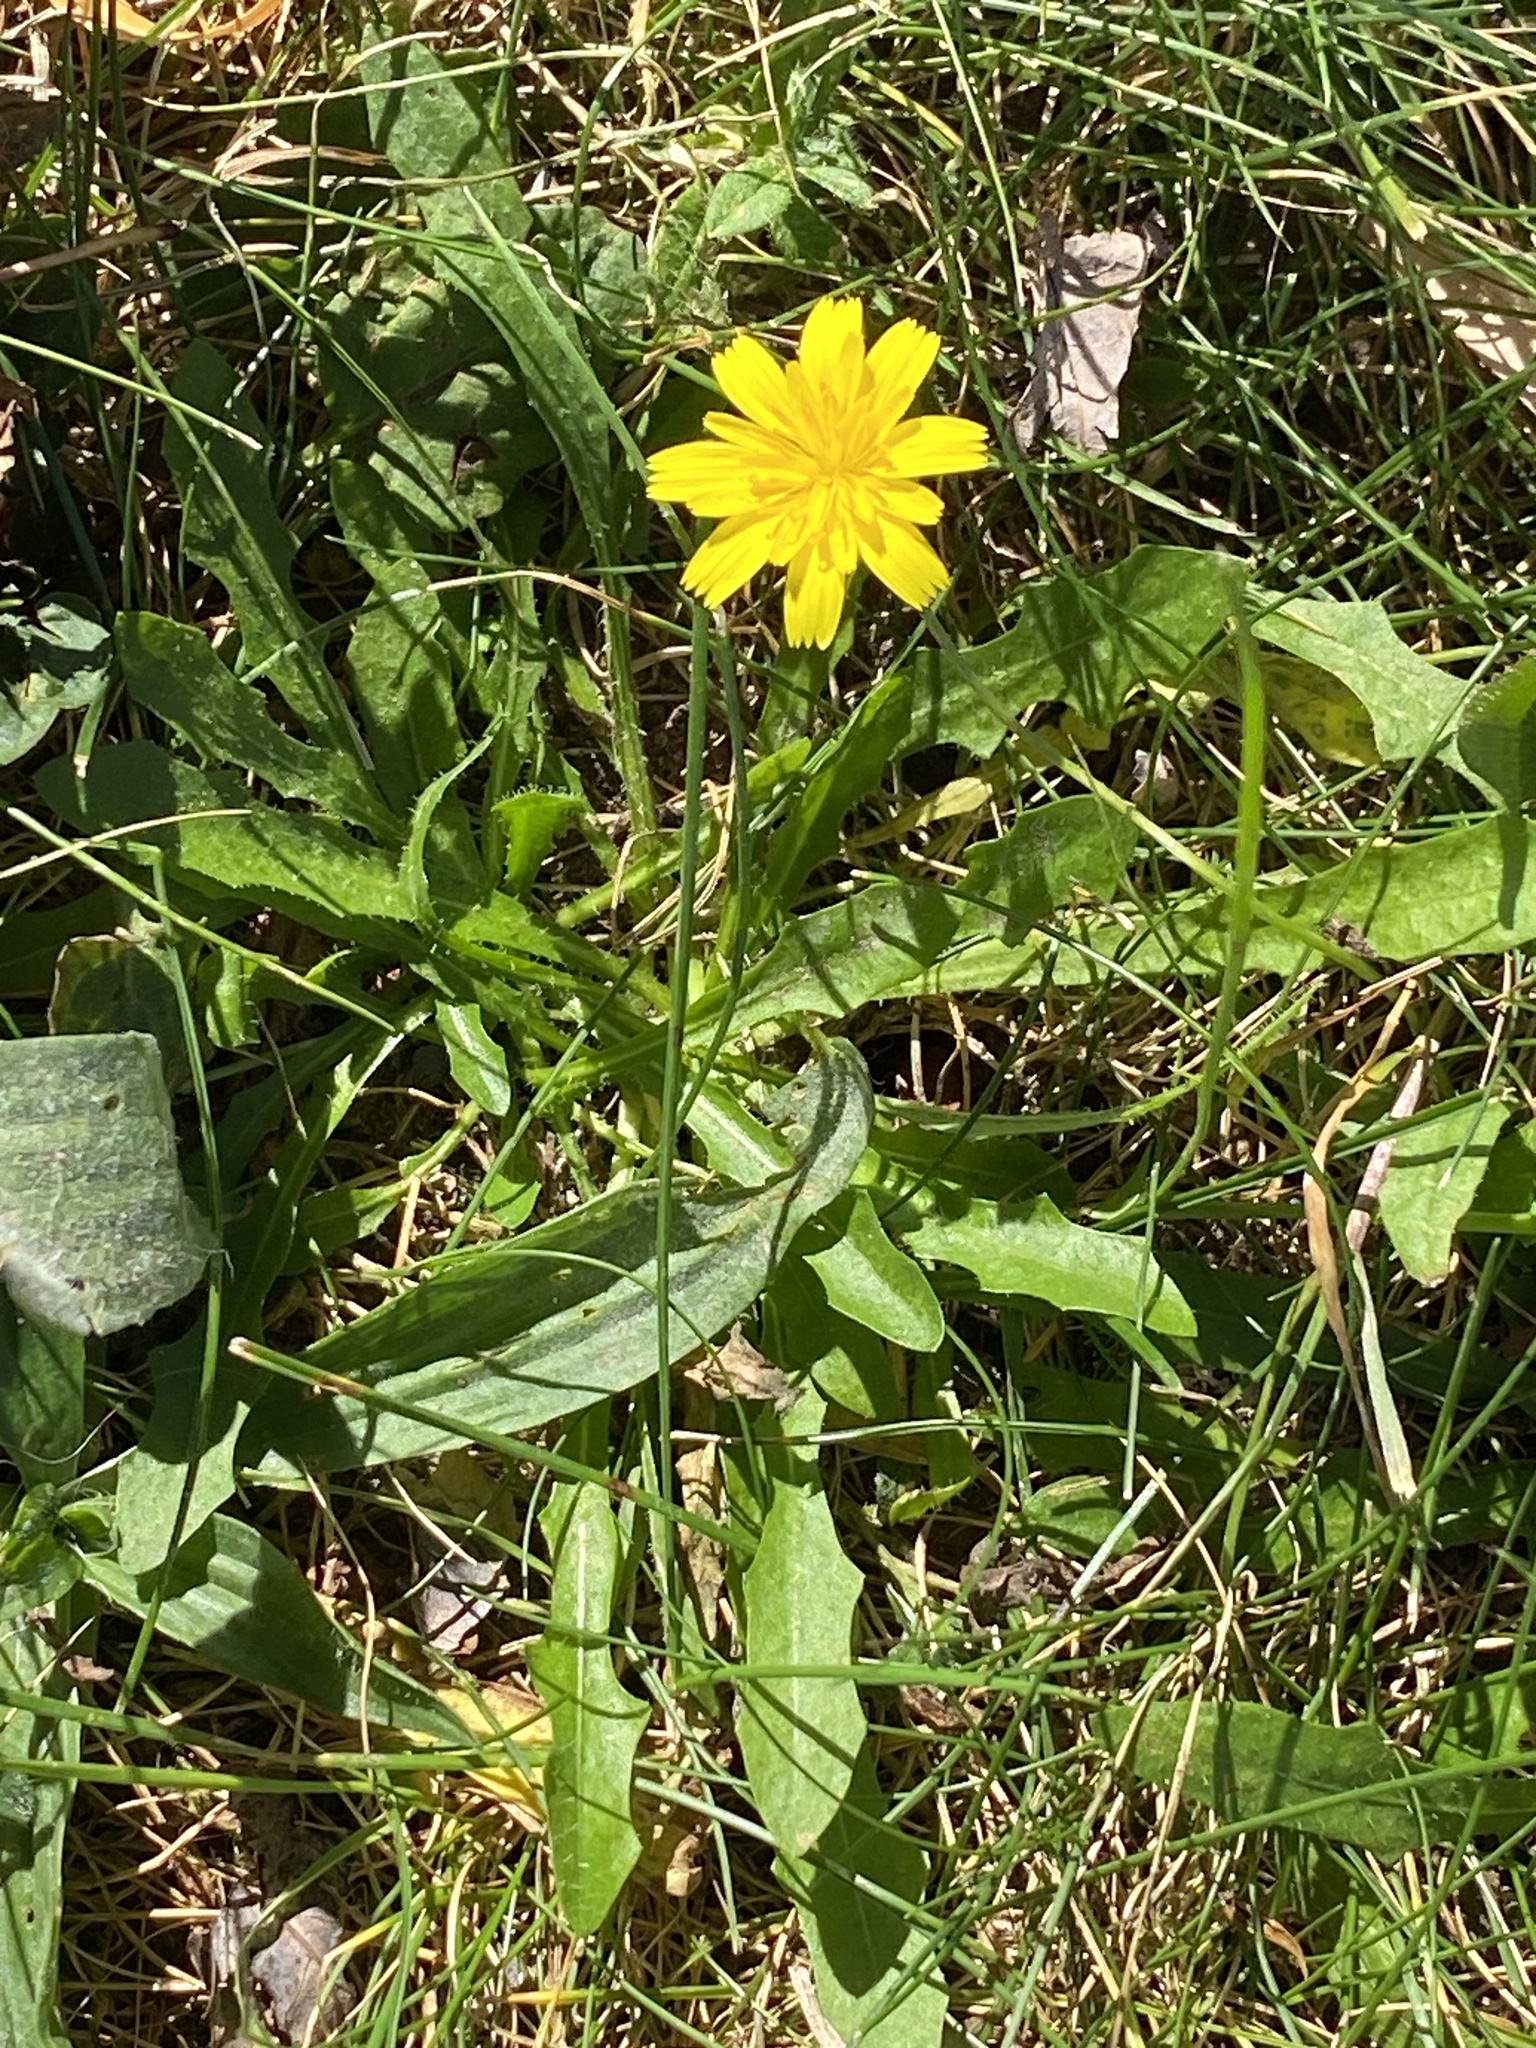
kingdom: Plantae
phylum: Tracheophyta
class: Magnoliopsida
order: Asterales
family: Asteraceae
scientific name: Asteraceae
